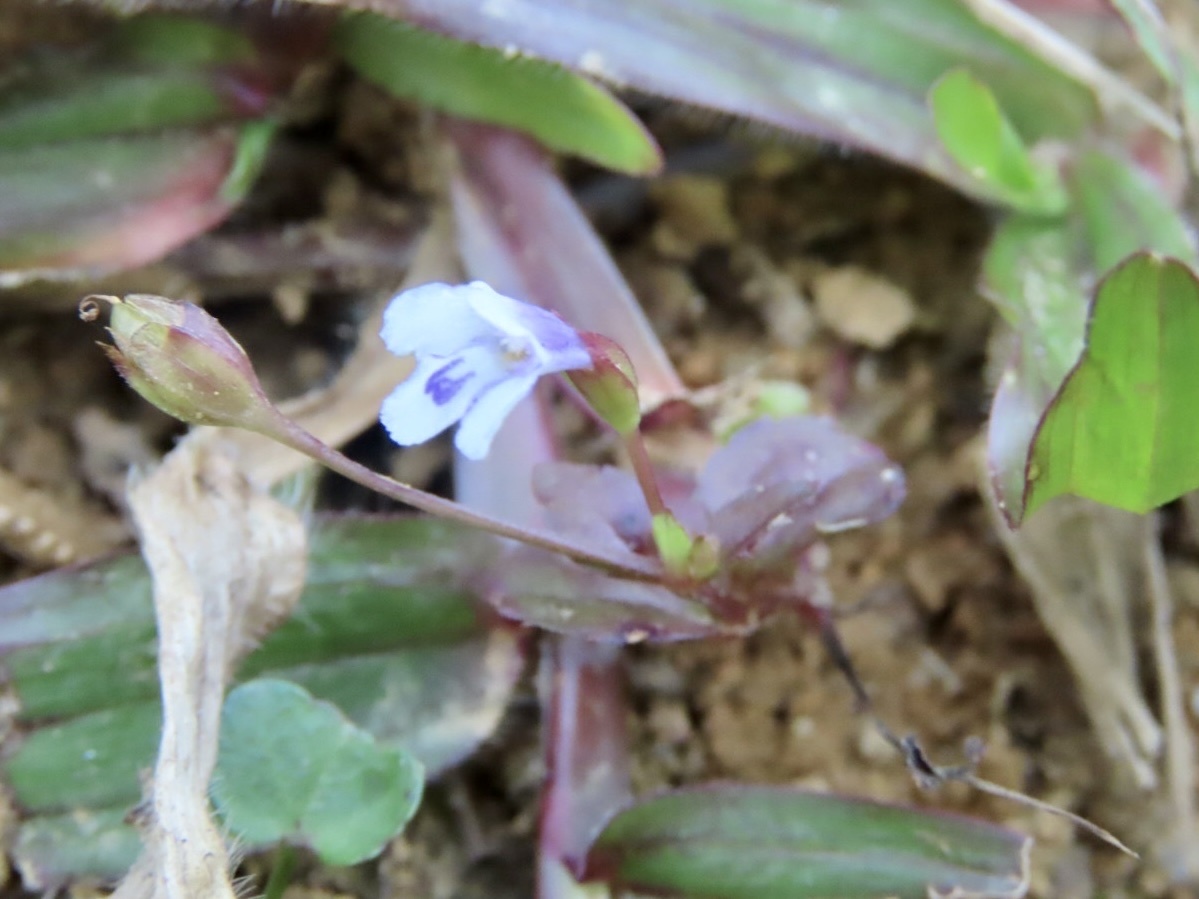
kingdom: Plantae
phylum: Tracheophyta
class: Magnoliopsida
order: Lamiales
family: Linderniaceae
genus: Torenia
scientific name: Torenia crustacea
